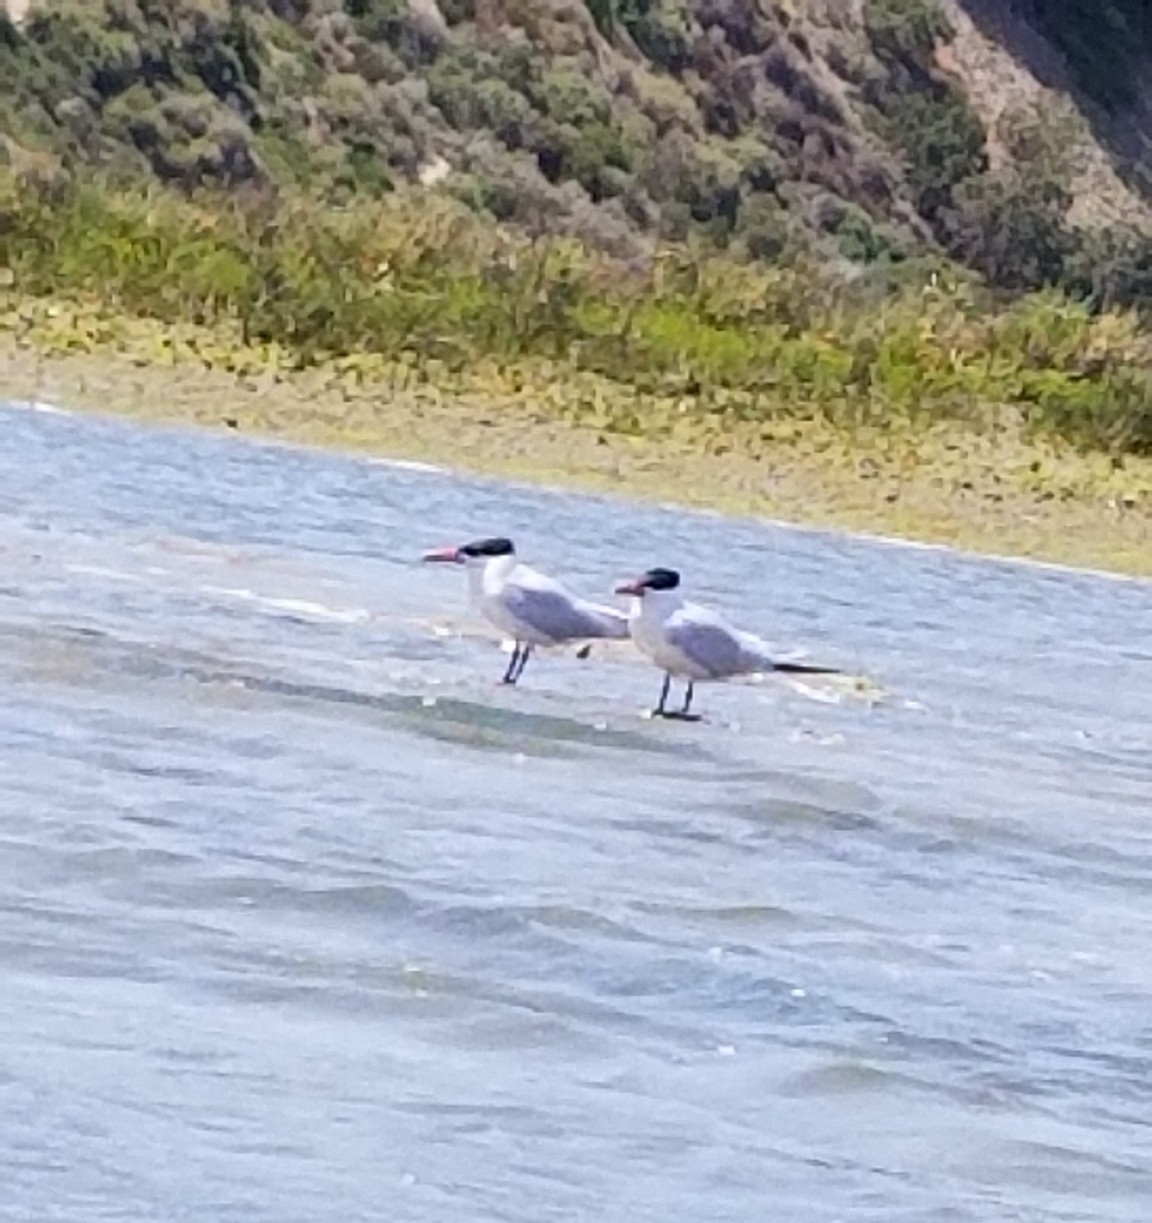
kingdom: Animalia
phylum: Chordata
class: Aves
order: Charadriiformes
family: Laridae
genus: Hydroprogne
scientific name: Hydroprogne caspia
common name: Caspian tern
